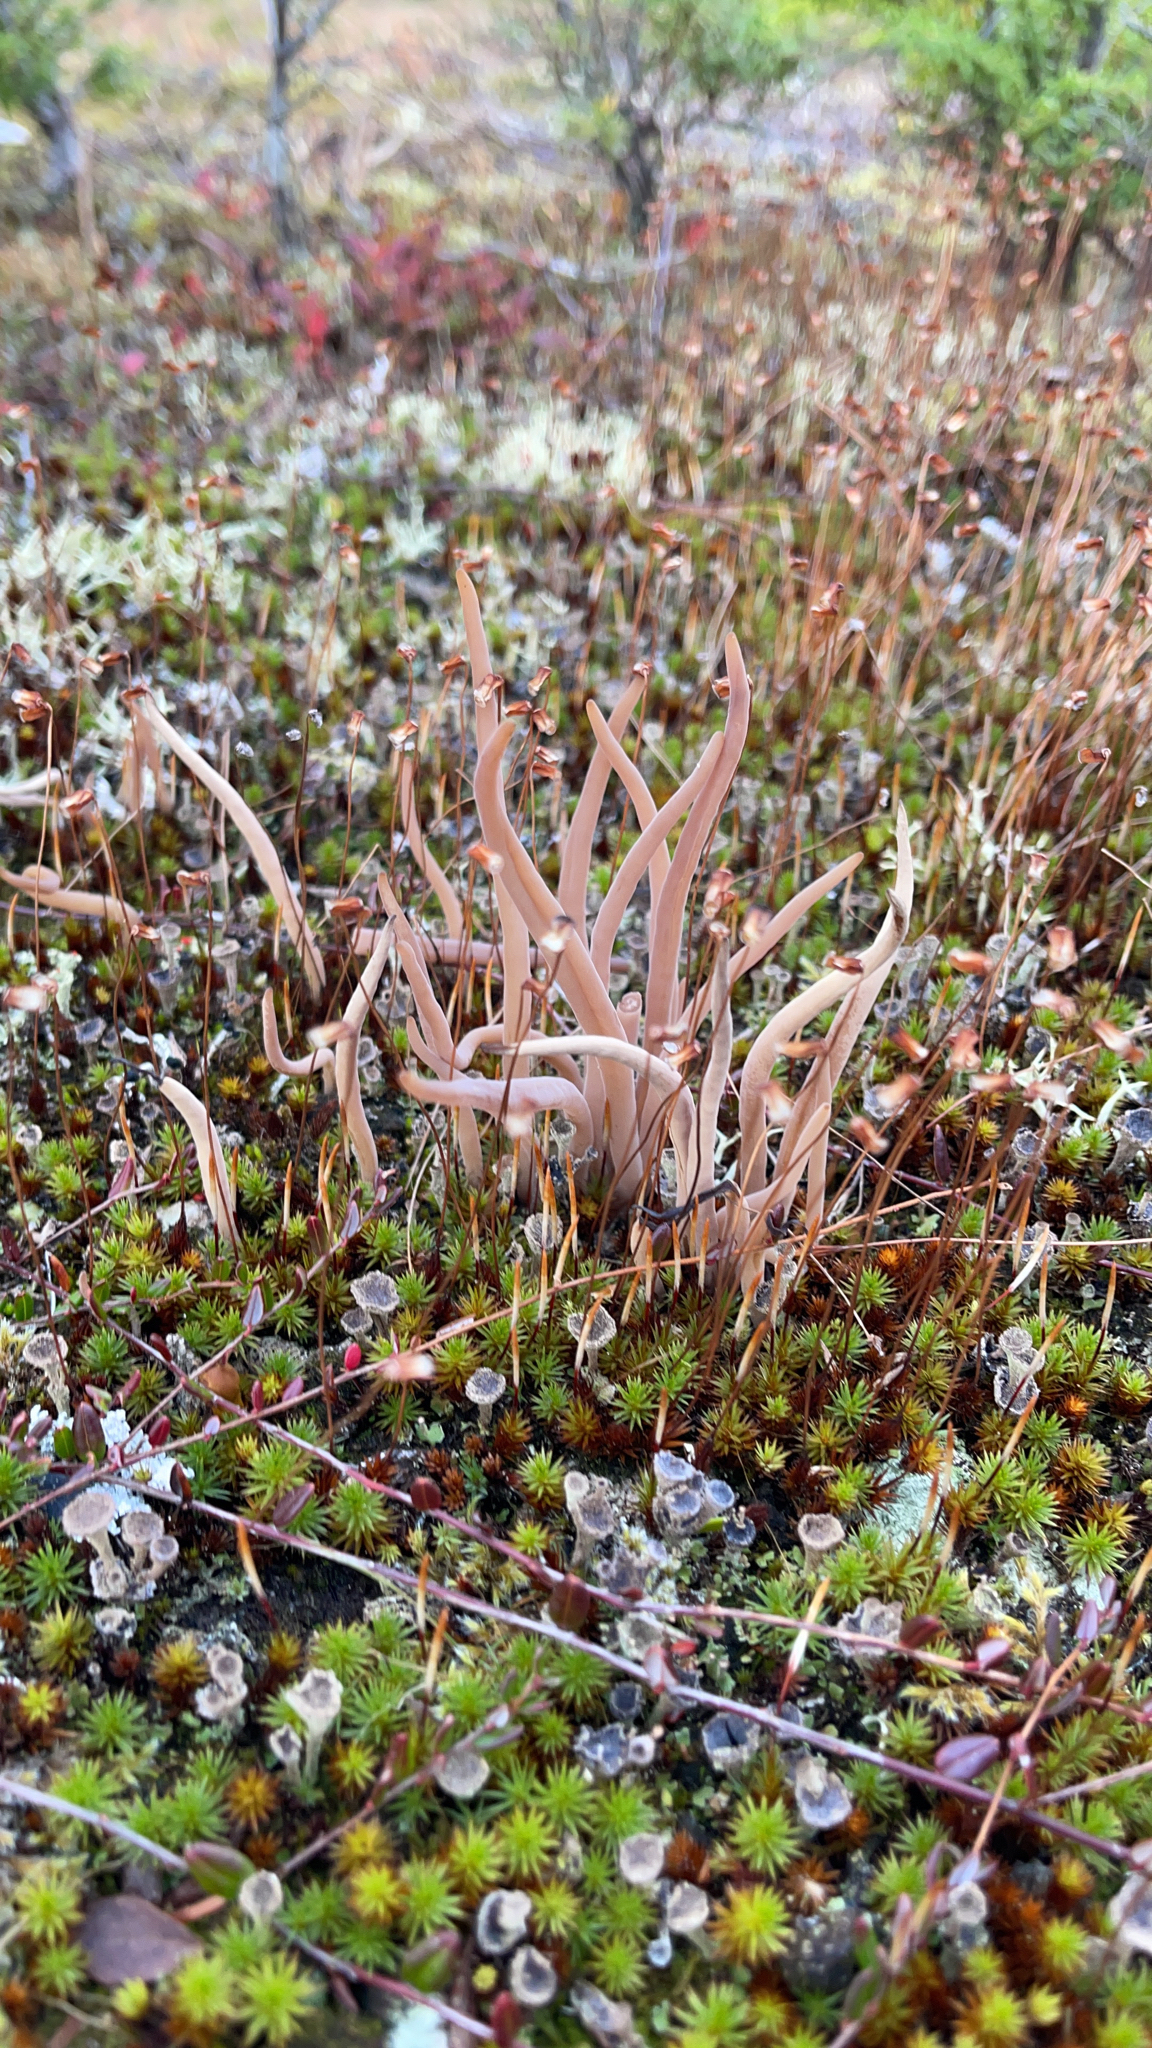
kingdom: Fungi
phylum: Basidiomycota
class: Agaricomycetes
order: Hymenochaetales
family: Rickenellaceae
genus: Alloclavaria
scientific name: Alloclavaria purpurea
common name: Purple spindles
